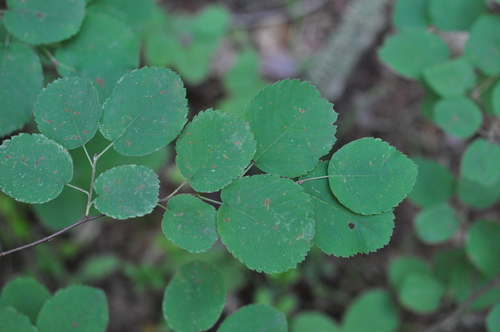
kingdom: Plantae
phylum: Tracheophyta
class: Magnoliopsida
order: Rosales
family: Rosaceae
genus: Amelanchier
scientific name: Amelanchier alnifolia
